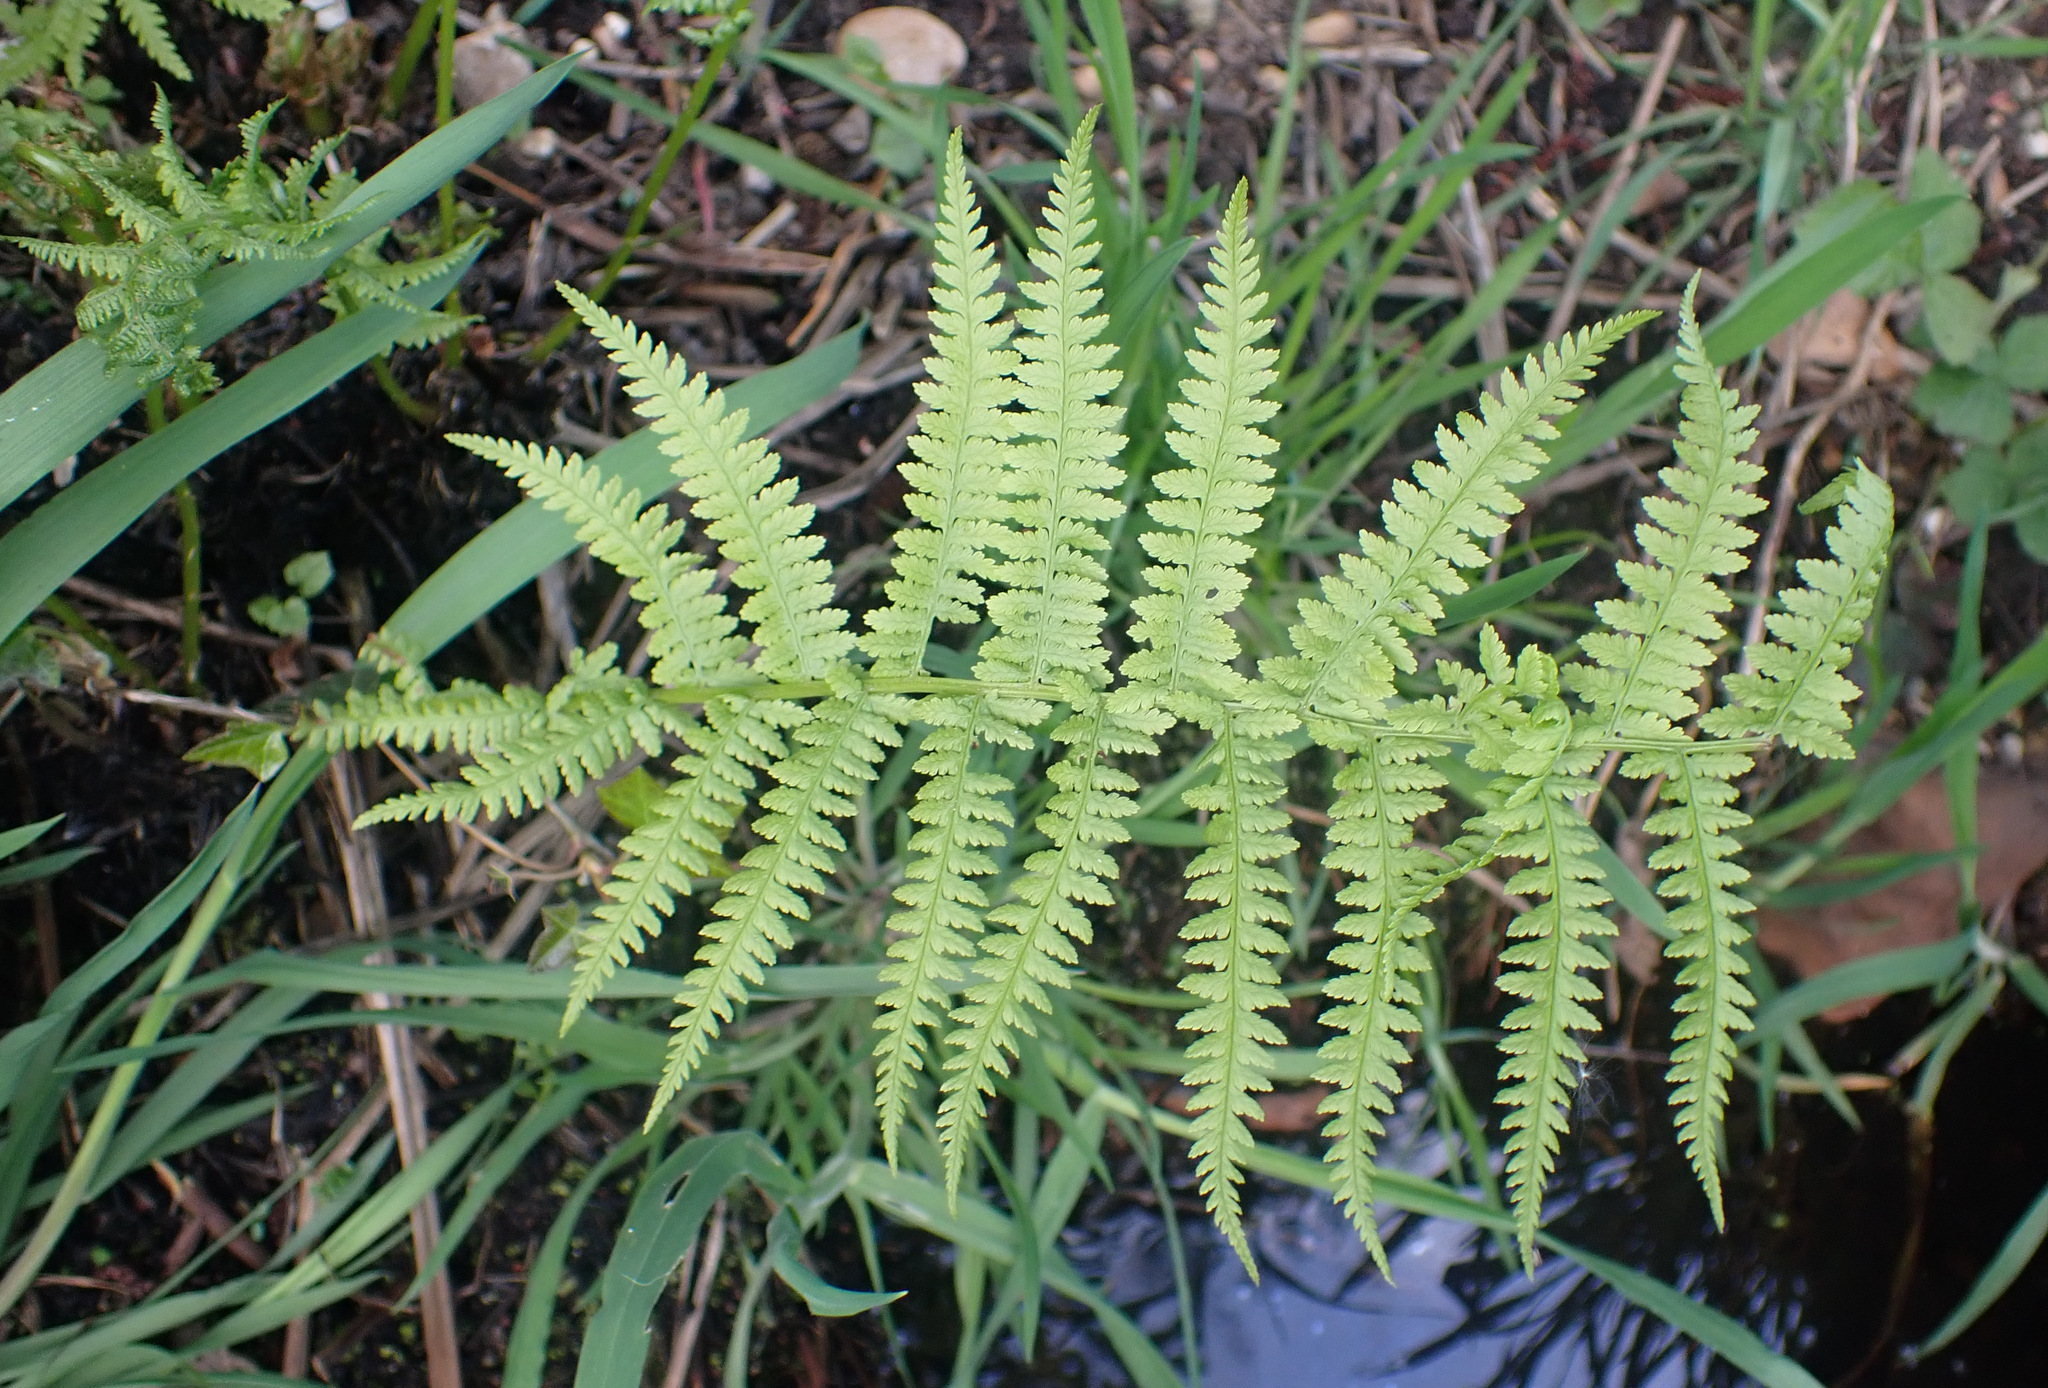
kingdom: Plantae
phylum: Tracheophyta
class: Polypodiopsida
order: Polypodiales
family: Athyriaceae
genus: Athyrium
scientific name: Athyrium filix-femina
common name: Lady fern
